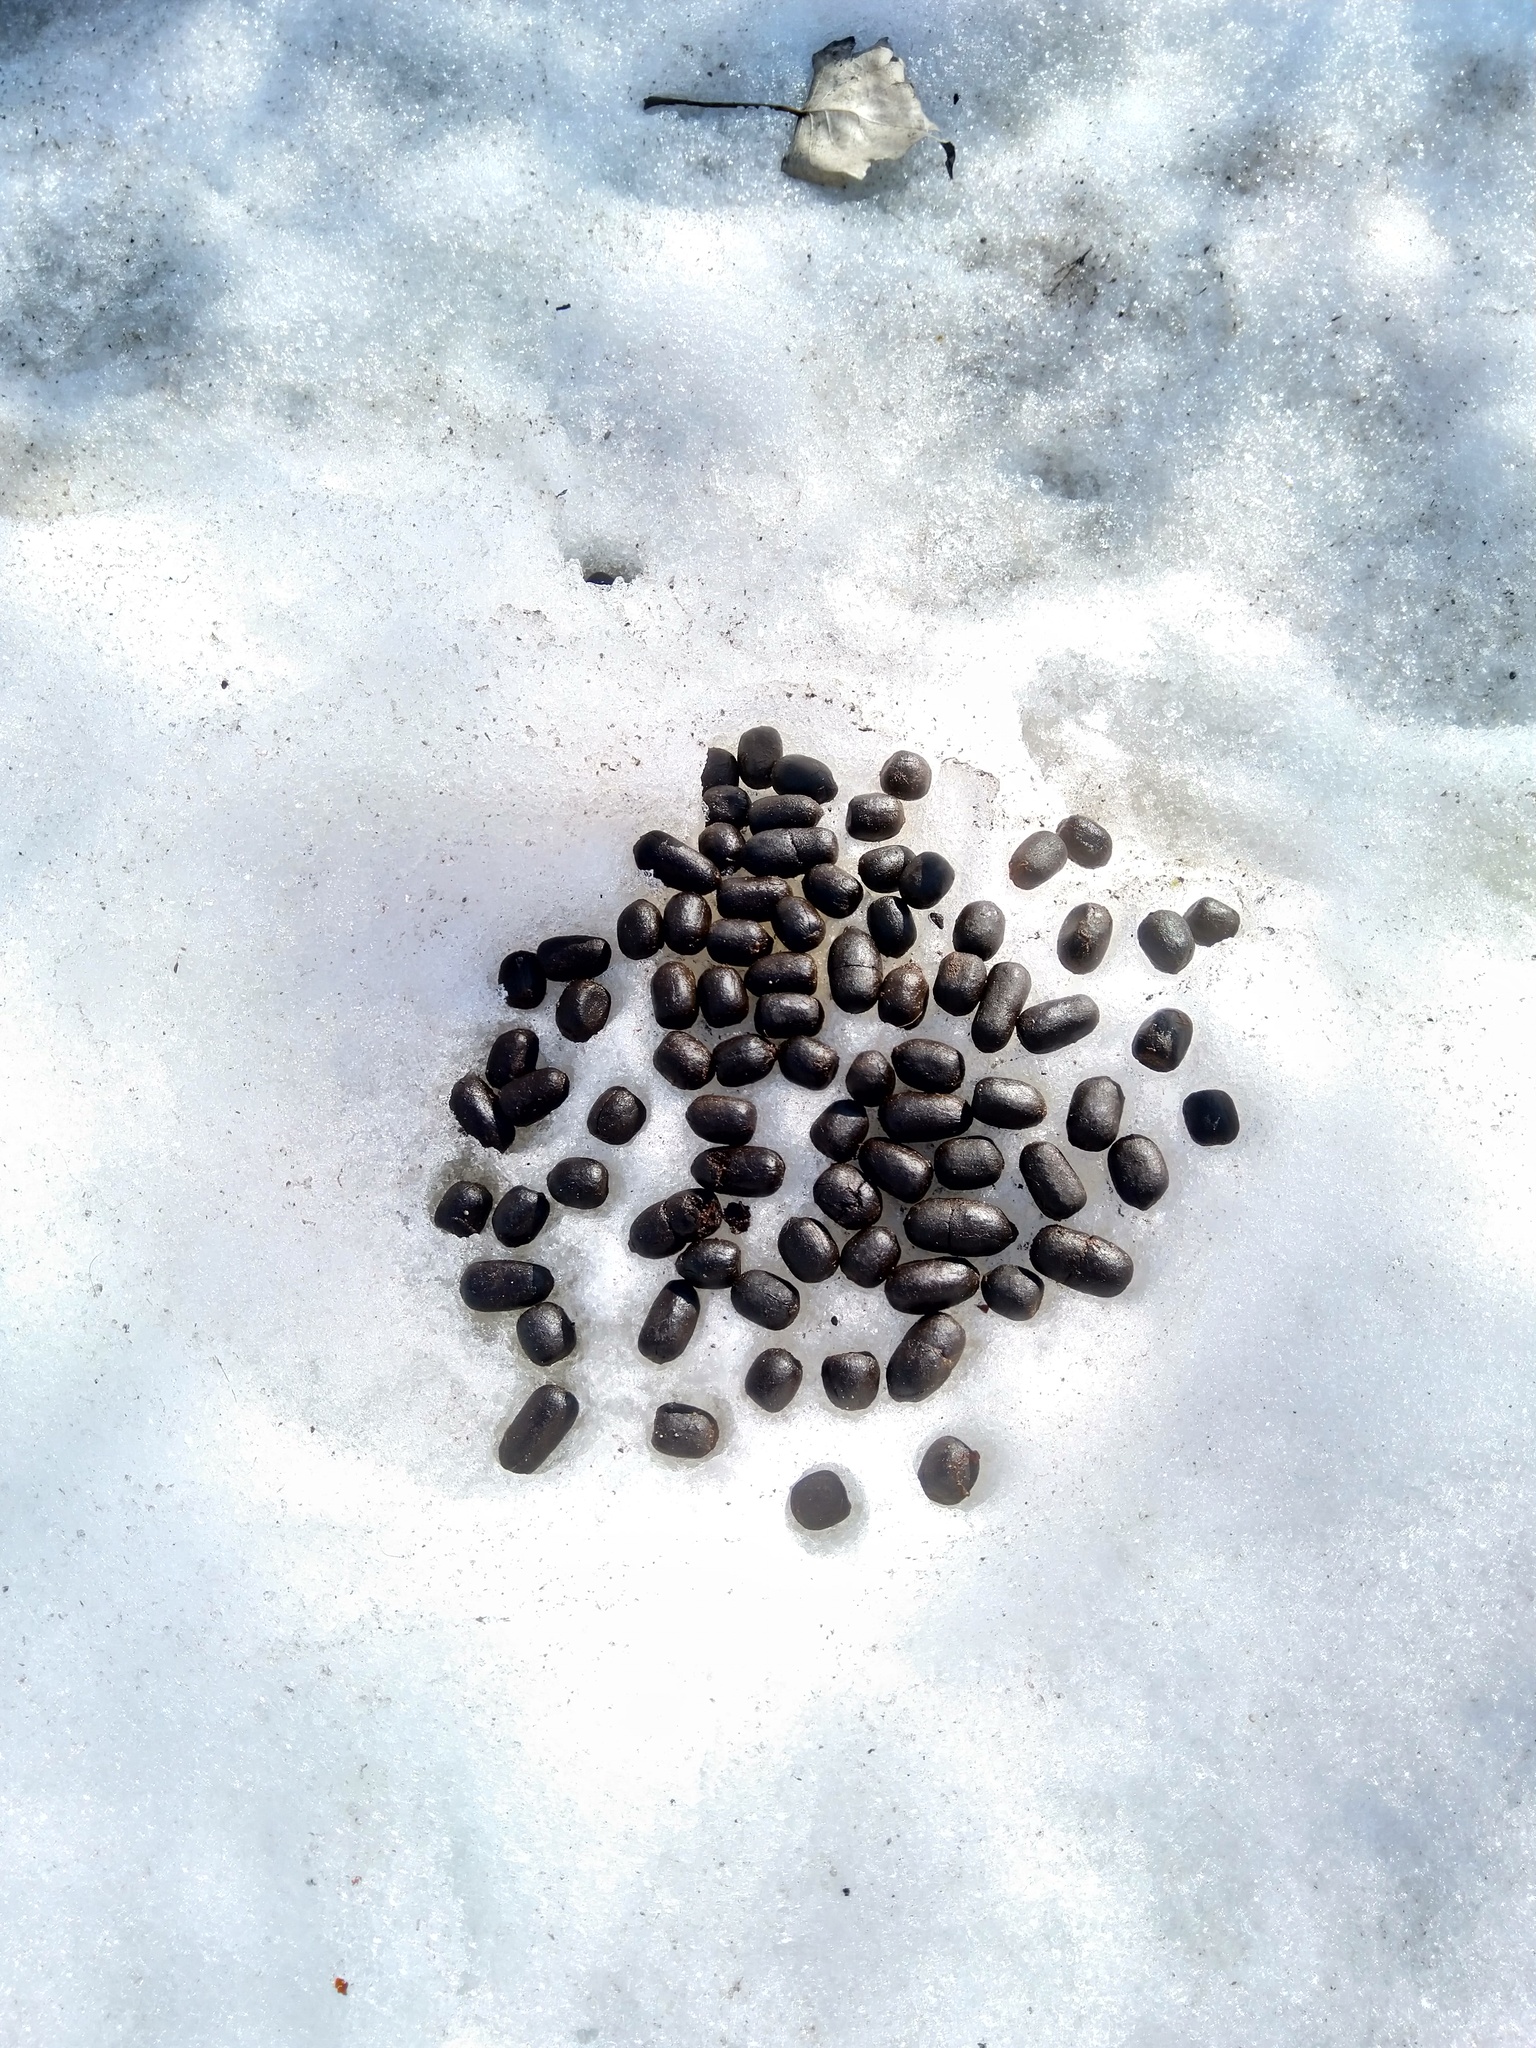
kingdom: Animalia
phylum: Chordata
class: Mammalia
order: Artiodactyla
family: Cervidae
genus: Odocoileus
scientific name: Odocoileus virginianus
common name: White-tailed deer
